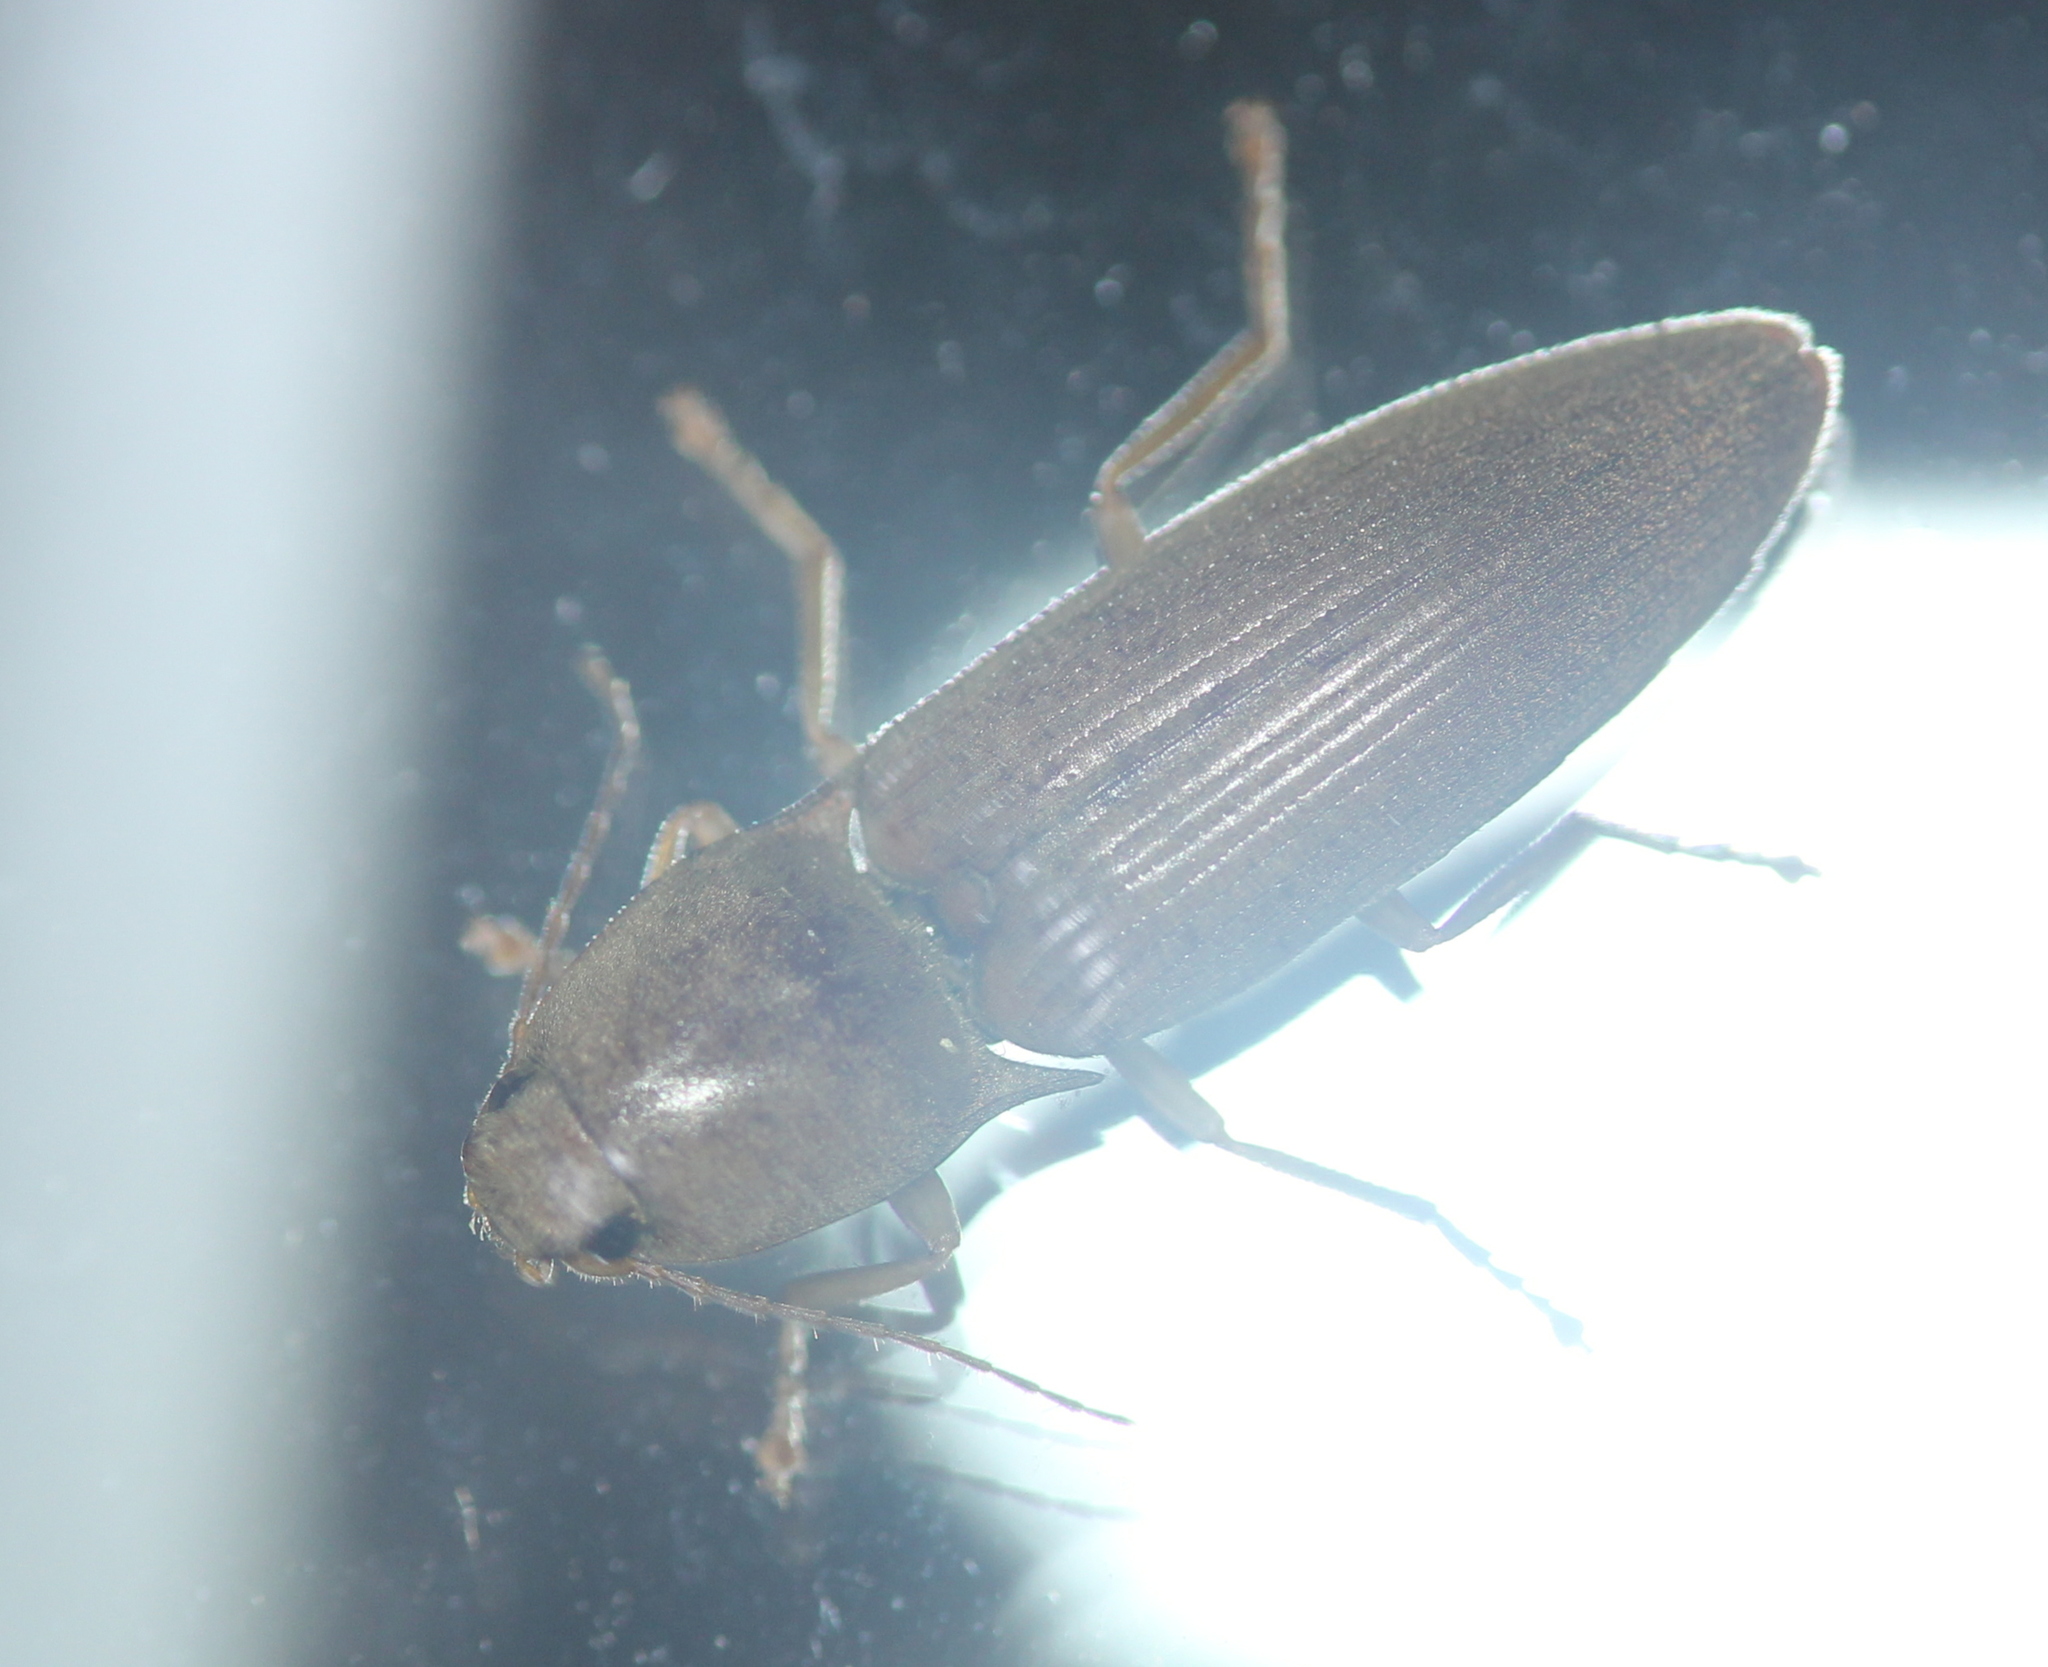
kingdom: Animalia
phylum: Arthropoda
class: Insecta
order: Coleoptera
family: Elateridae
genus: Monocrepidius
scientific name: Monocrepidius lividus
